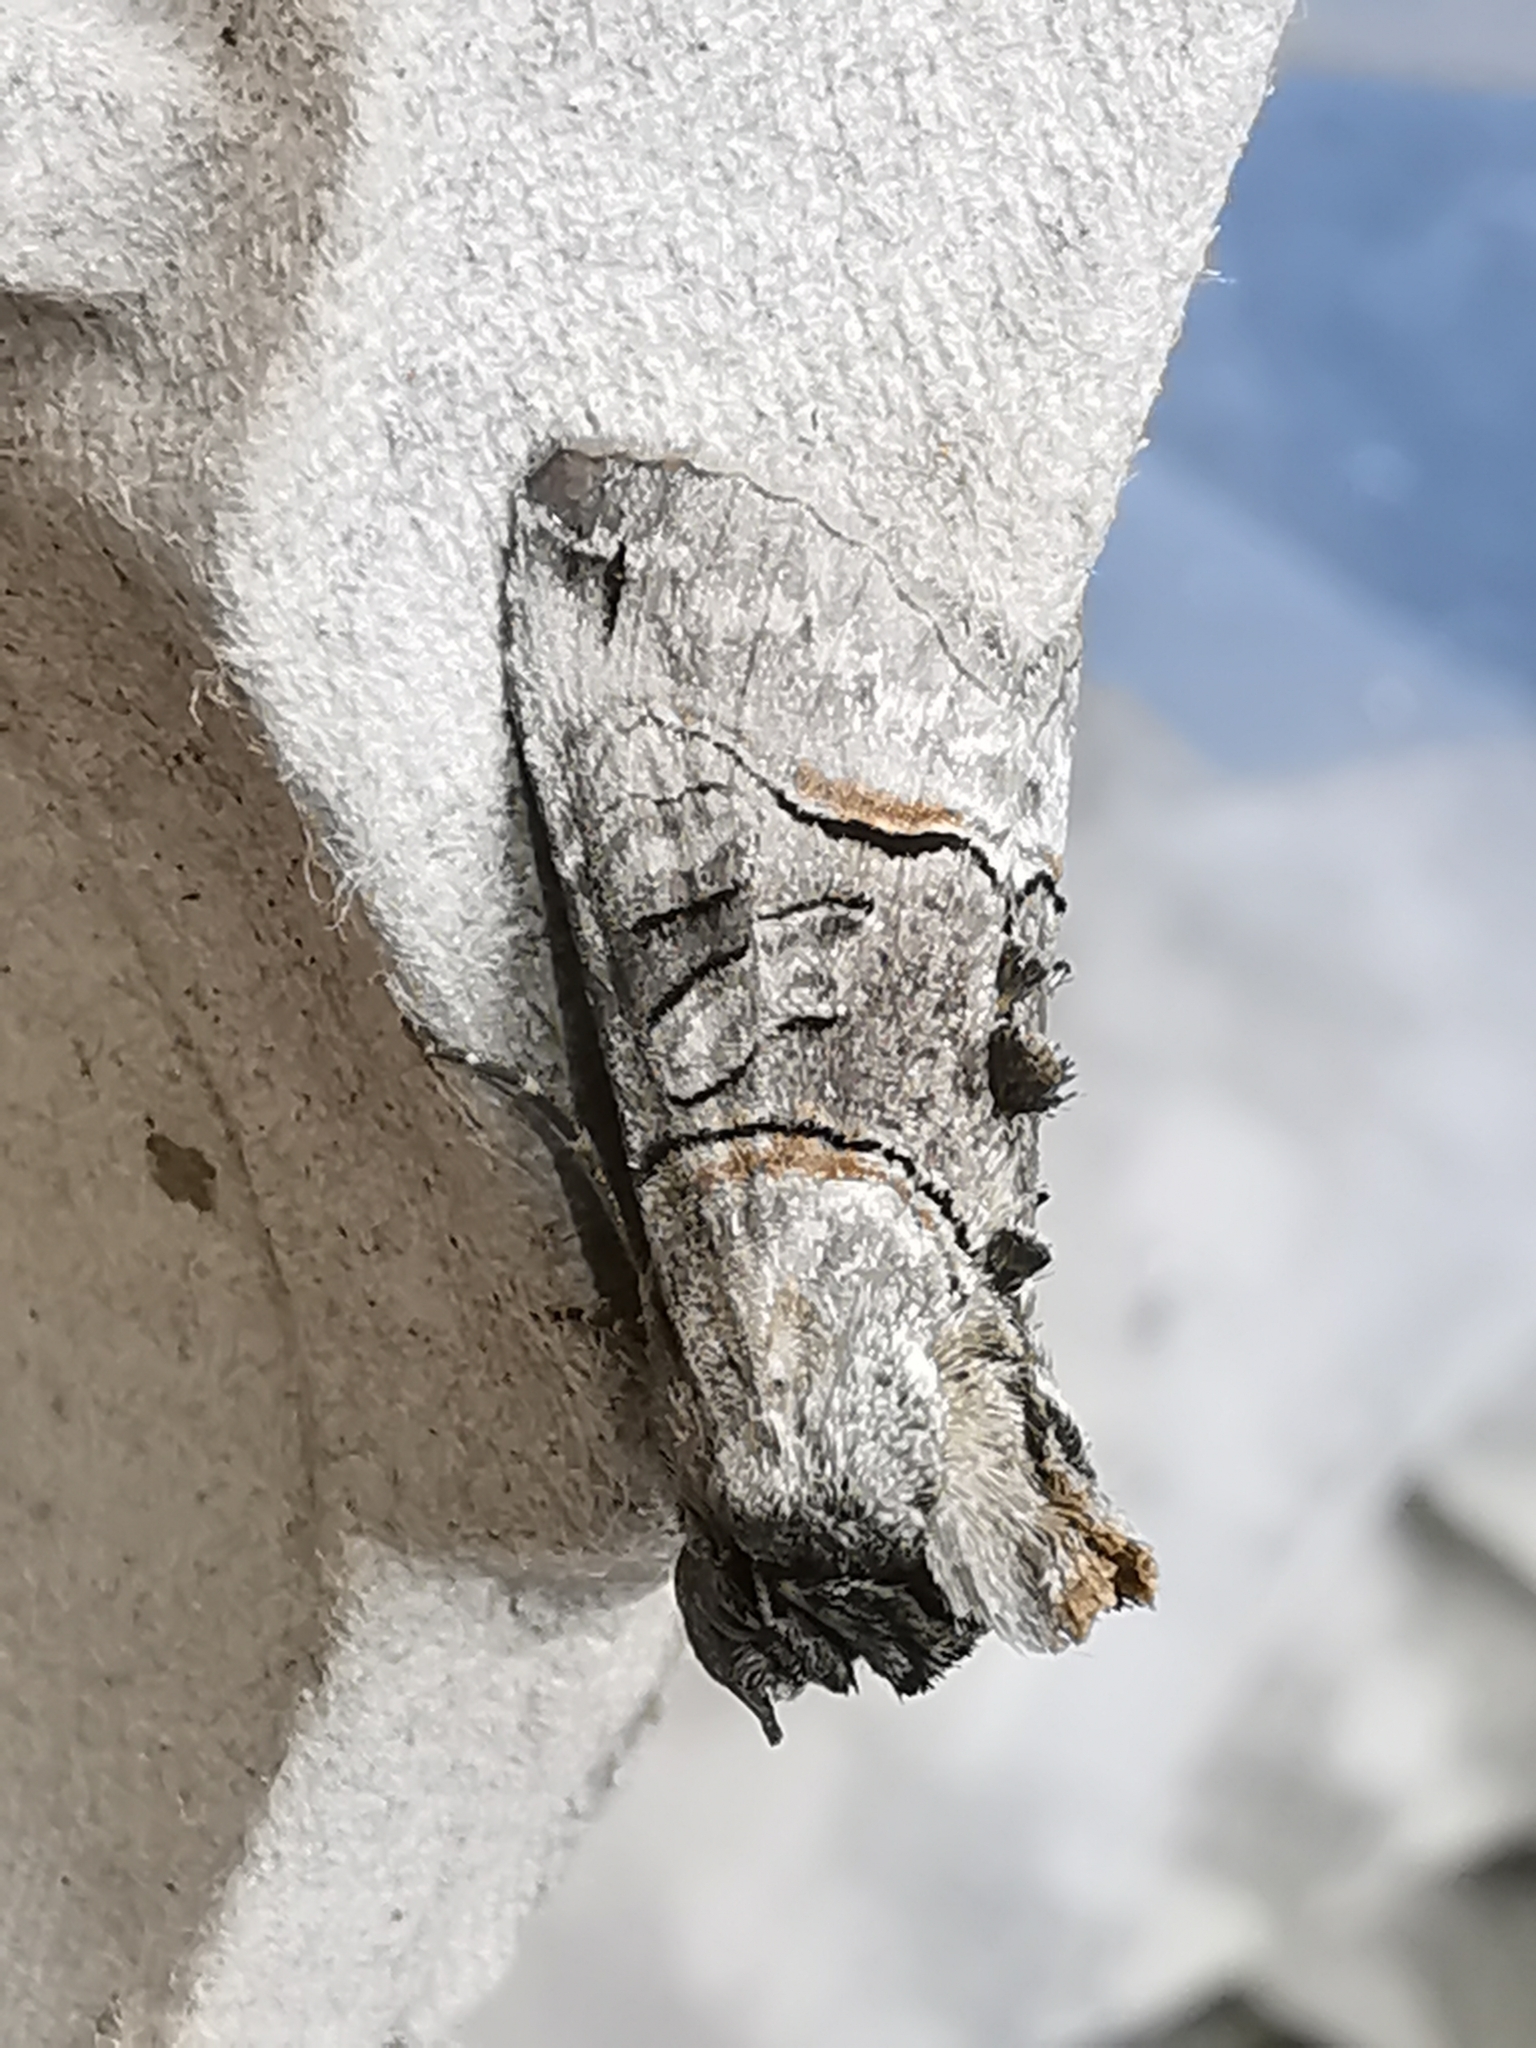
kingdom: Animalia
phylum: Arthropoda
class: Insecta
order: Lepidoptera
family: Noctuidae
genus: Abrostola
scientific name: Abrostola tripartita
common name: Spectacle
